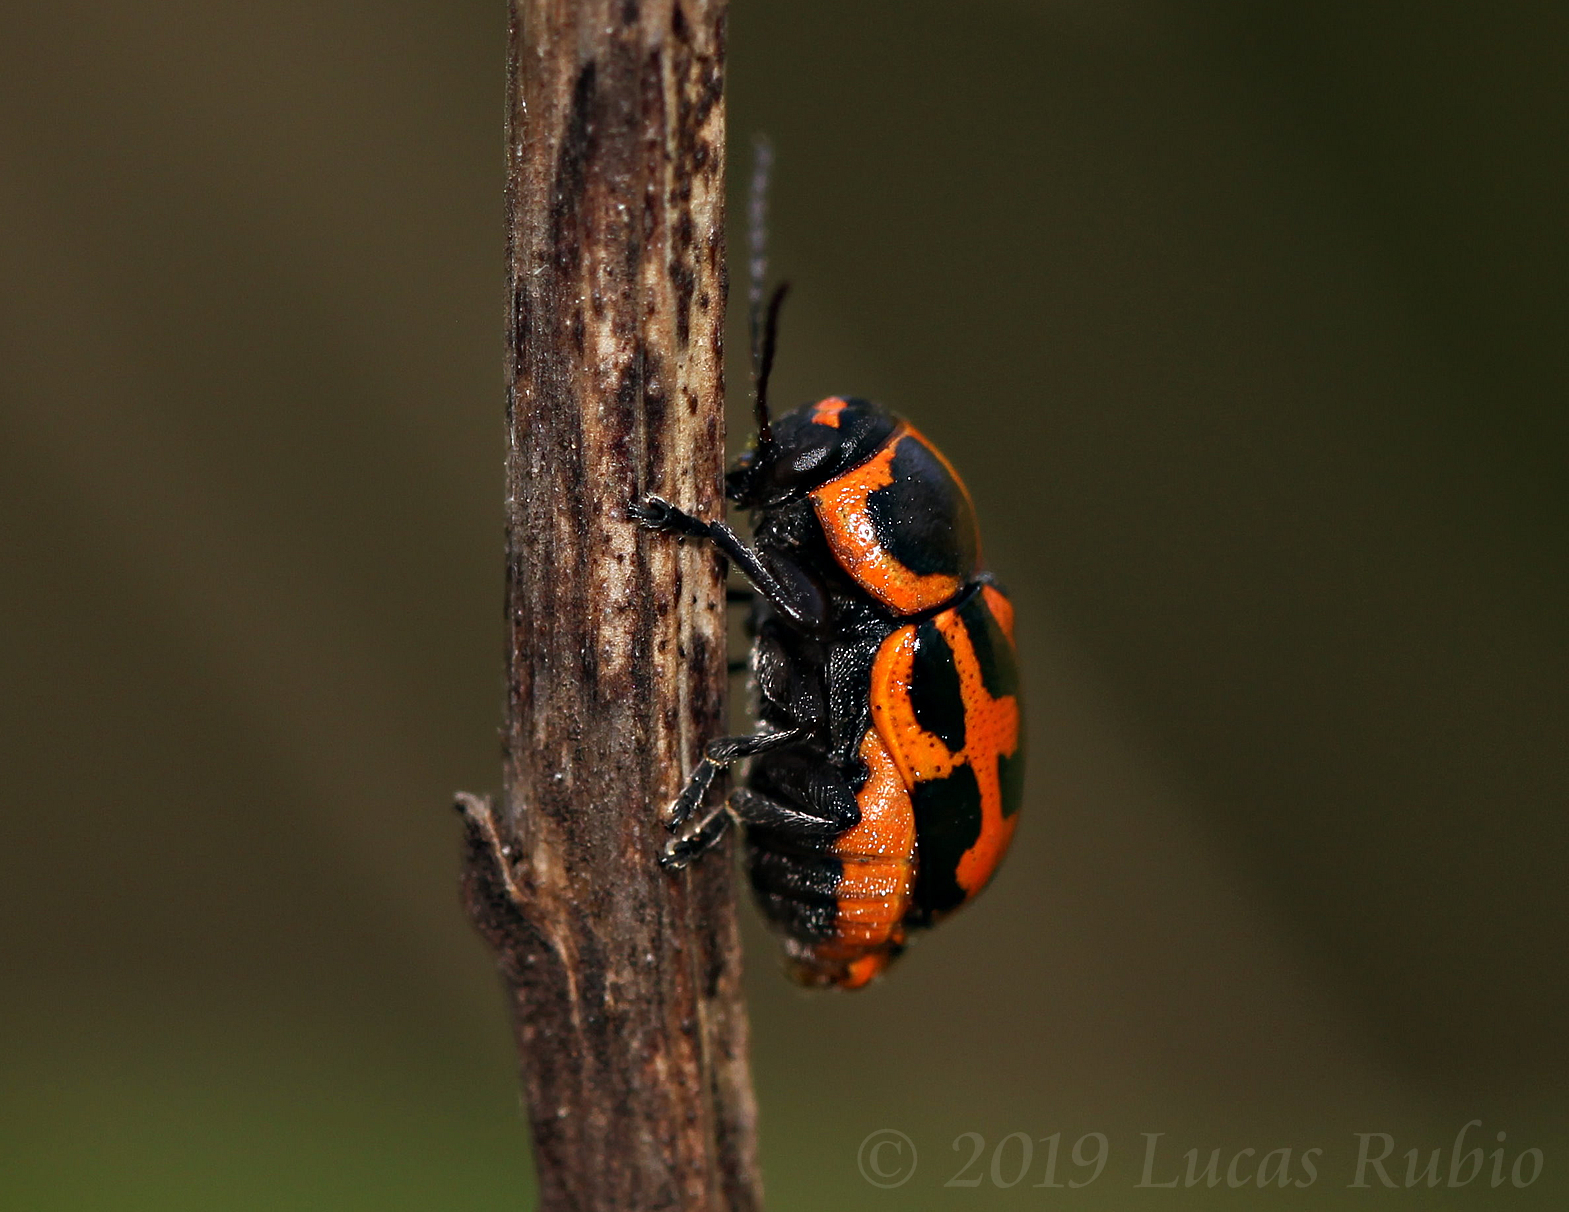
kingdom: Animalia
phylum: Arthropoda
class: Insecta
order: Coleoptera
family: Chrysomelidae
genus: Metallactus
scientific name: Metallactus hamifer
